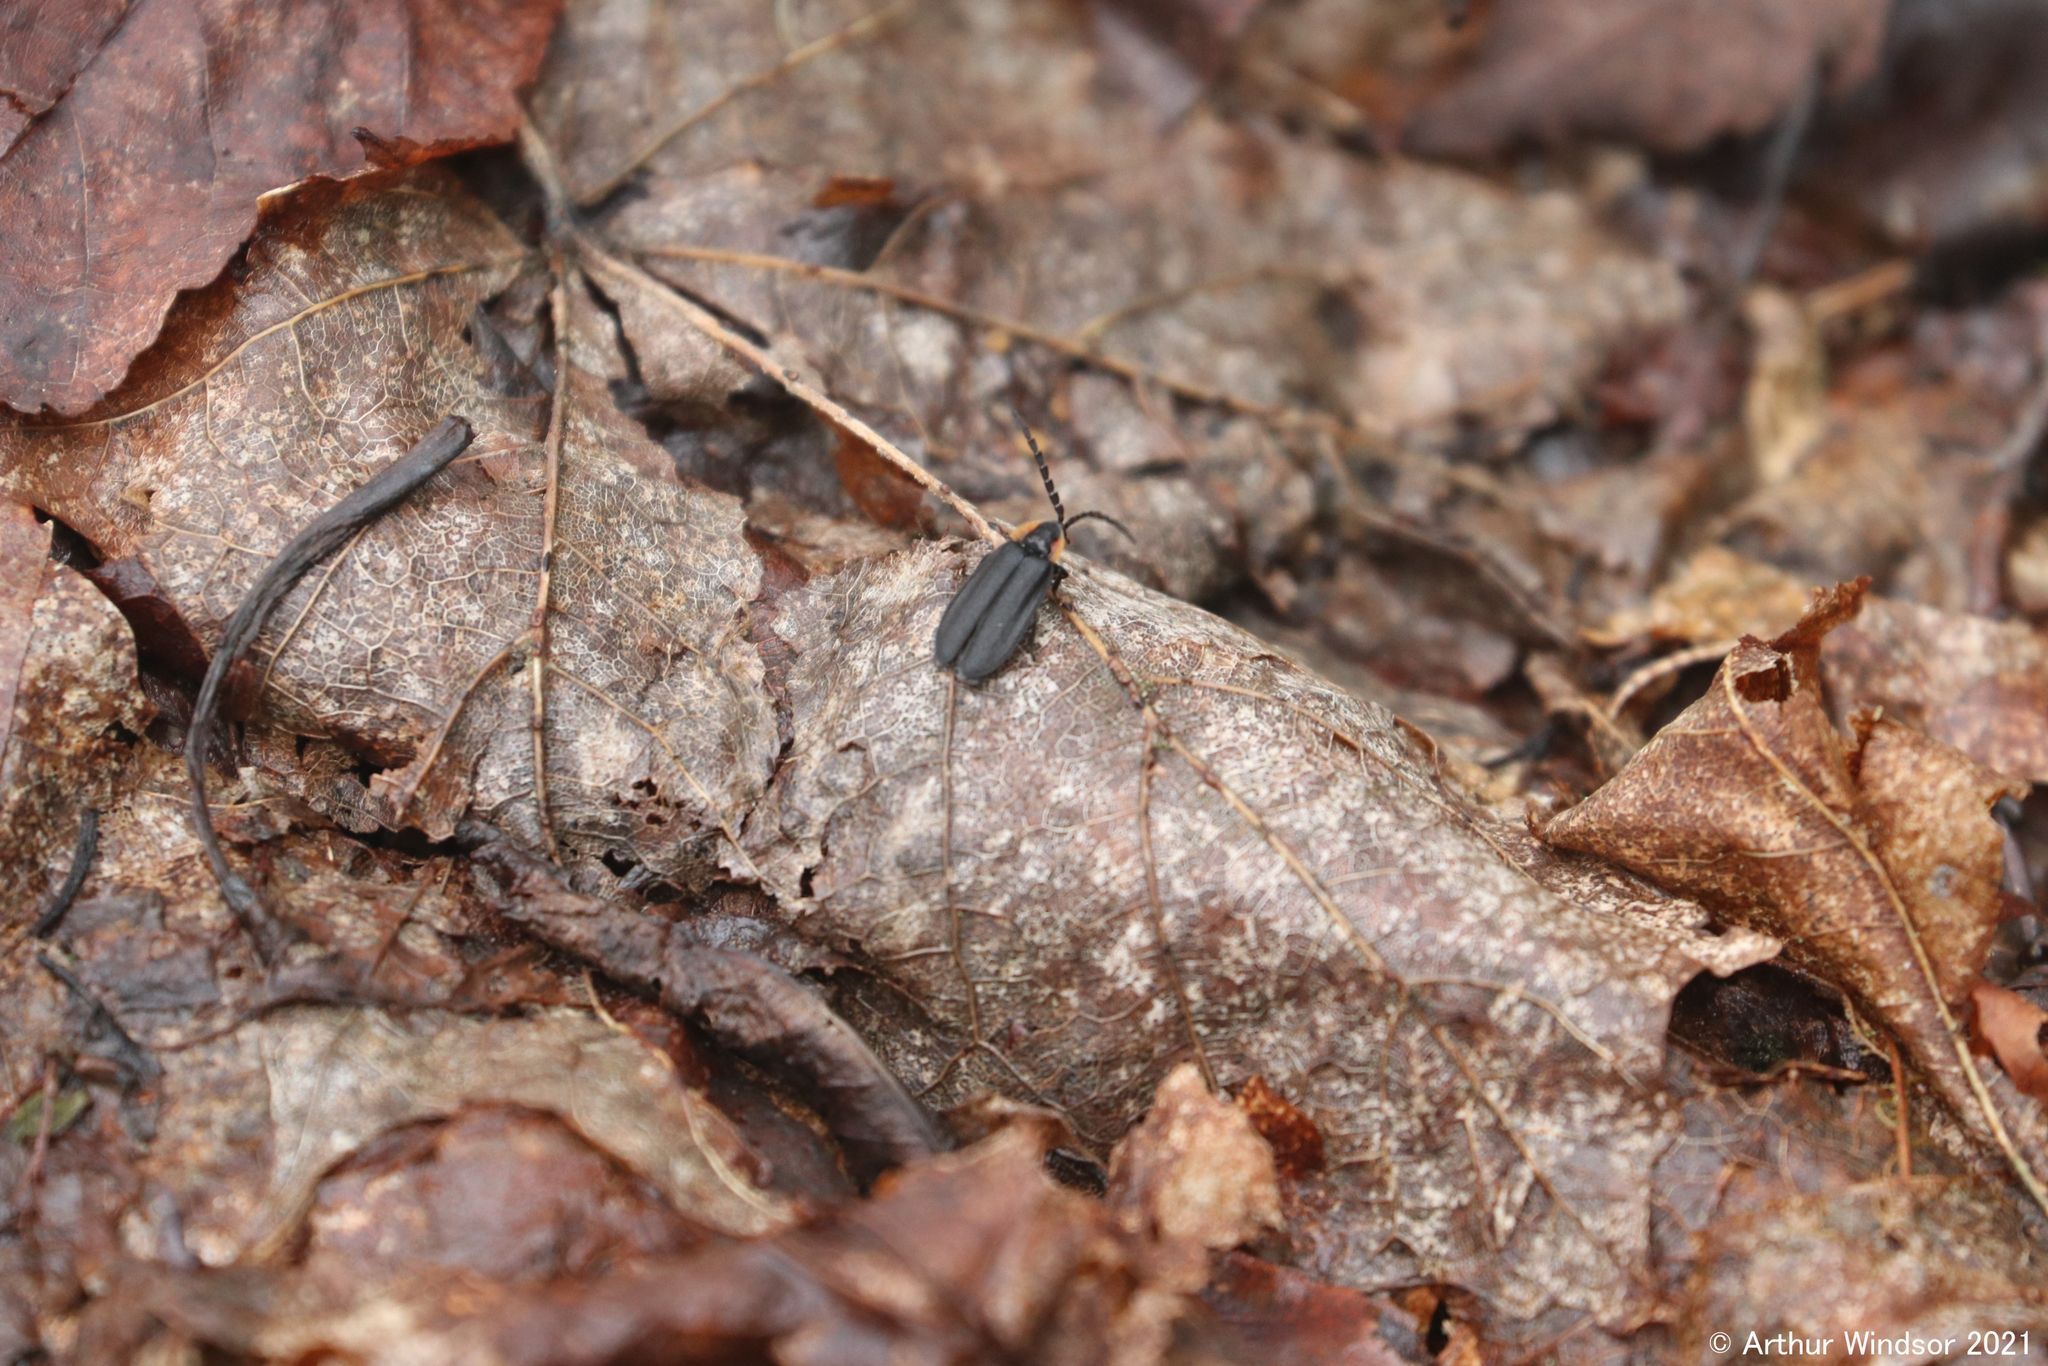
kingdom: Animalia
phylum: Arthropoda
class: Insecta
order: Coleoptera
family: Lampyridae
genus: Lucidota
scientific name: Lucidota atra
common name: Black firefly
